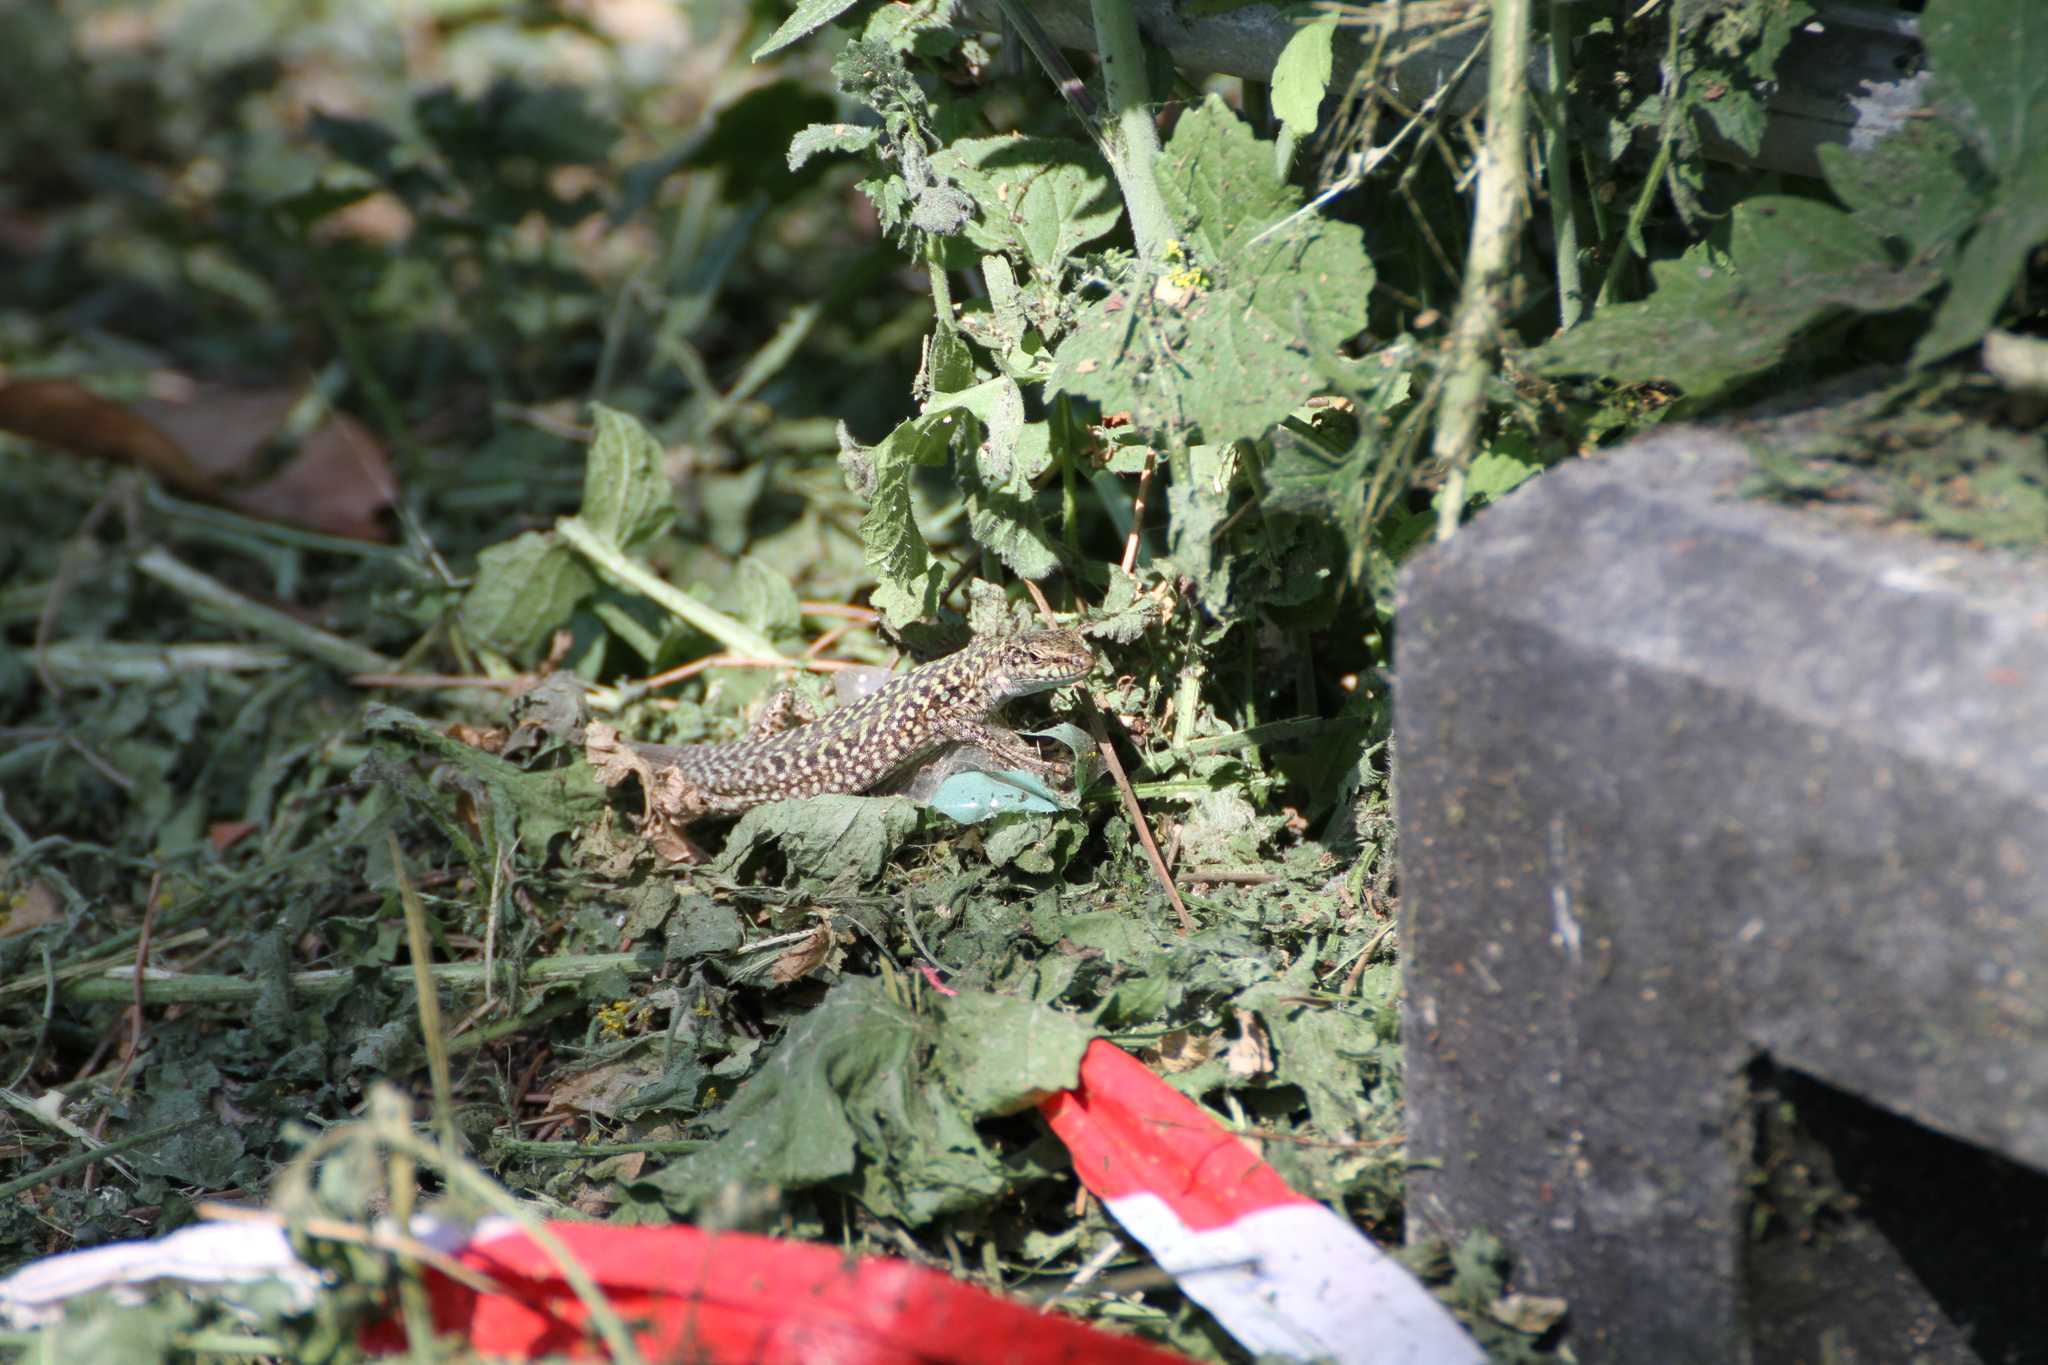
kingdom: Animalia
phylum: Chordata
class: Squamata
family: Lacertidae
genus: Podarcis
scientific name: Podarcis siculus
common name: Italian wall lizard
